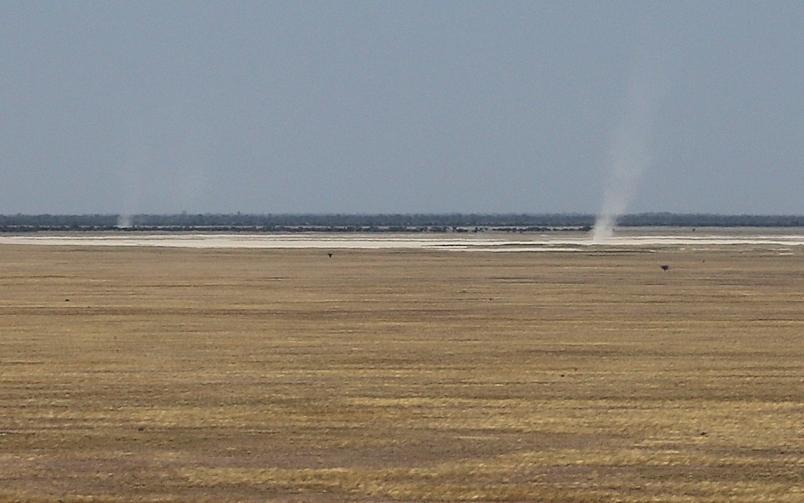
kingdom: Animalia
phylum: Chordata
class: Aves
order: Struthioniformes
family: Struthionidae
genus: Struthio
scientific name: Struthio camelus
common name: Common ostrich
